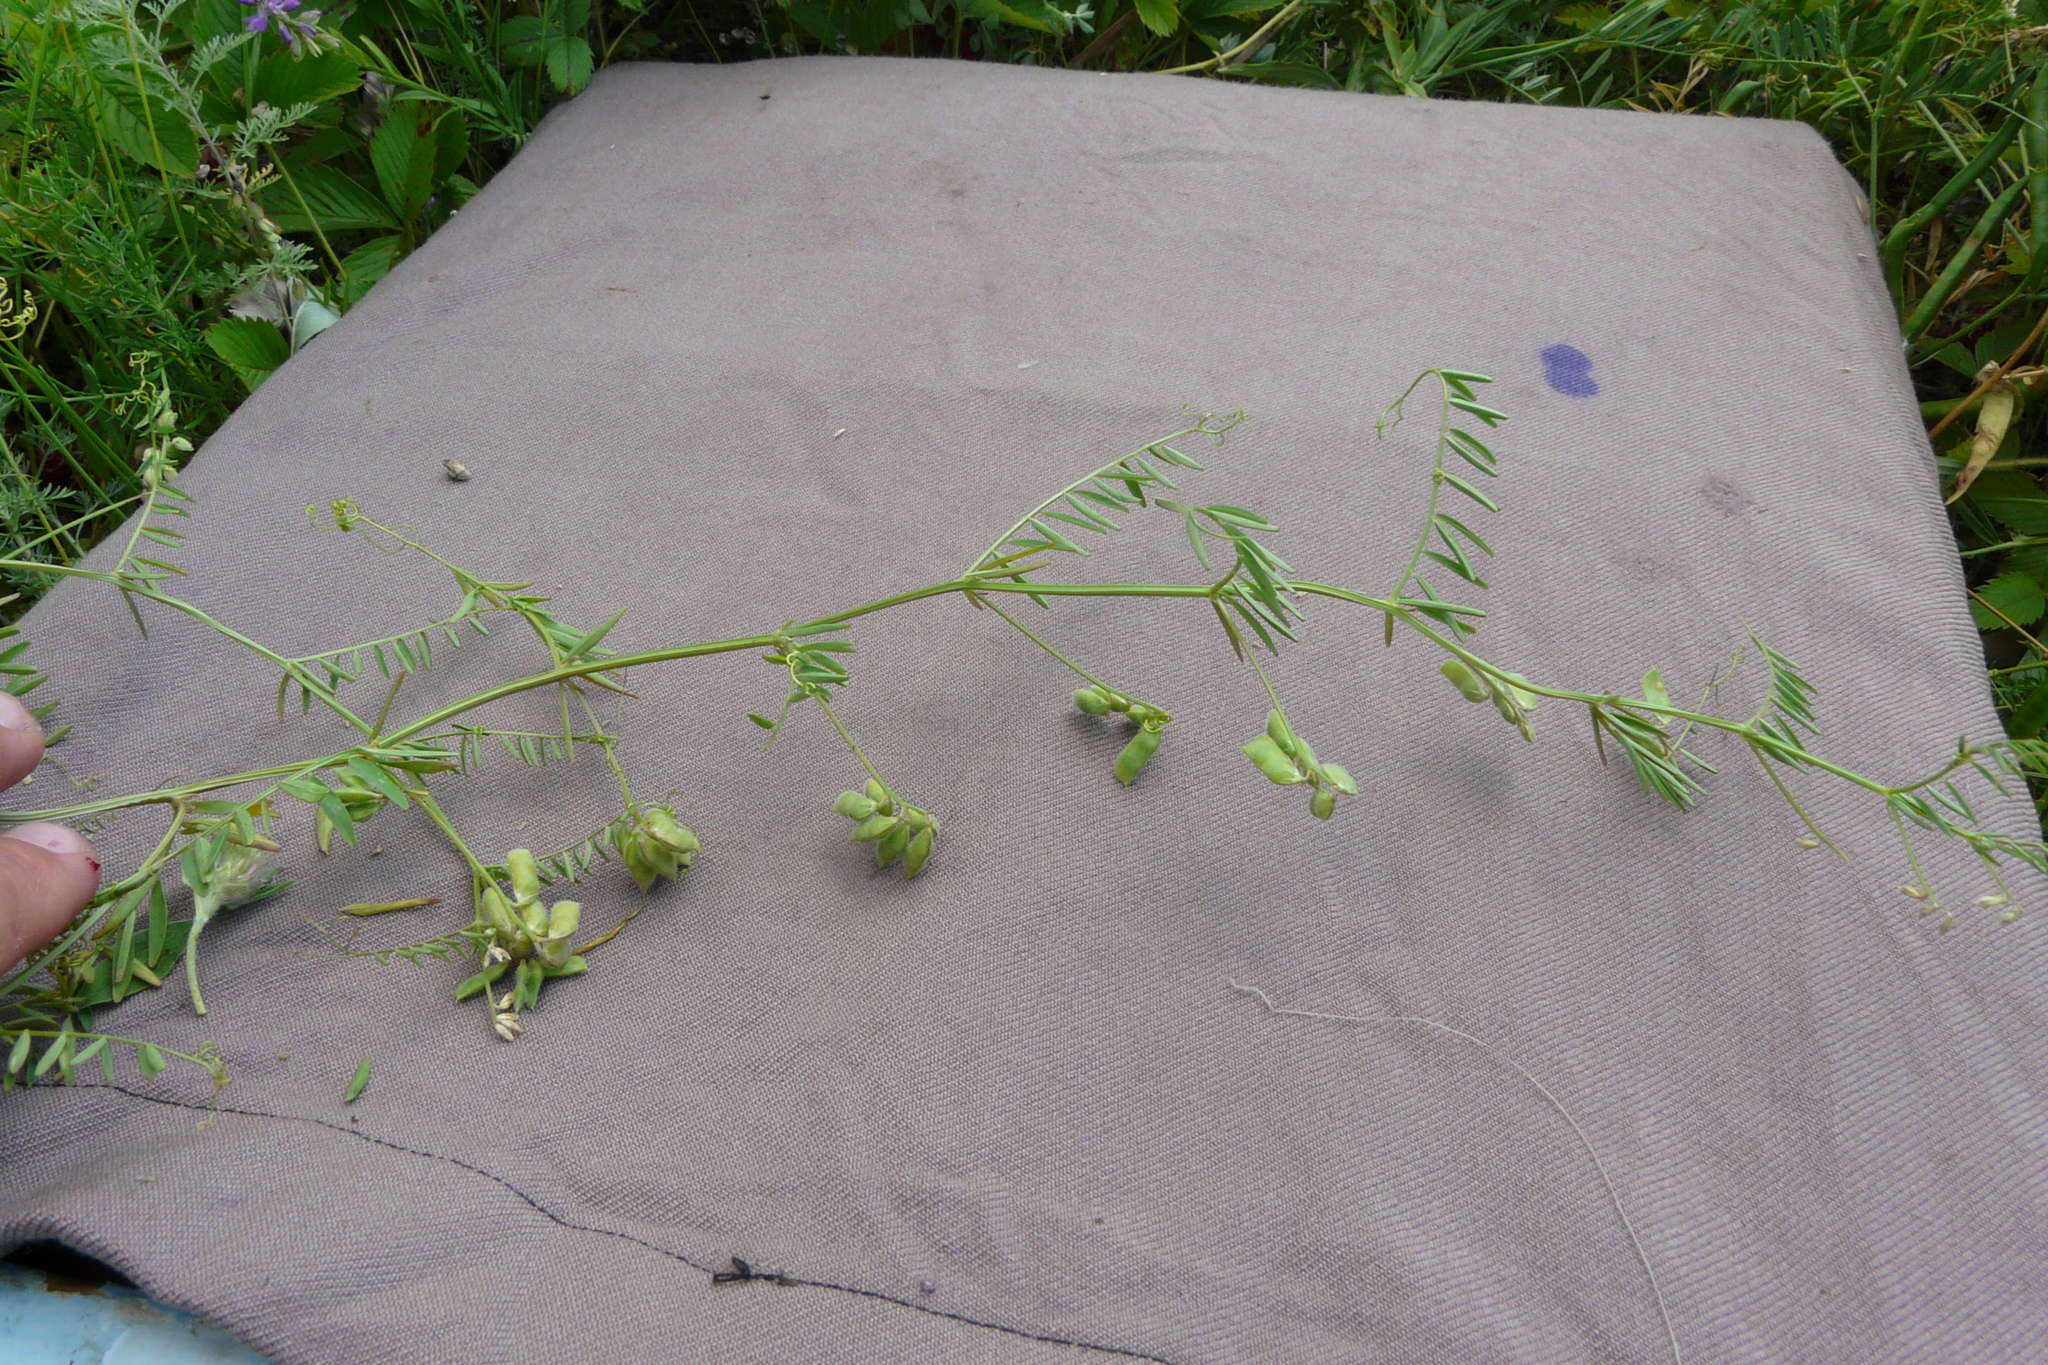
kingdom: Plantae
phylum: Tracheophyta
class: Magnoliopsida
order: Fabales
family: Fabaceae
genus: Vicia
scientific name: Vicia hirsuta
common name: Tiny vetch
